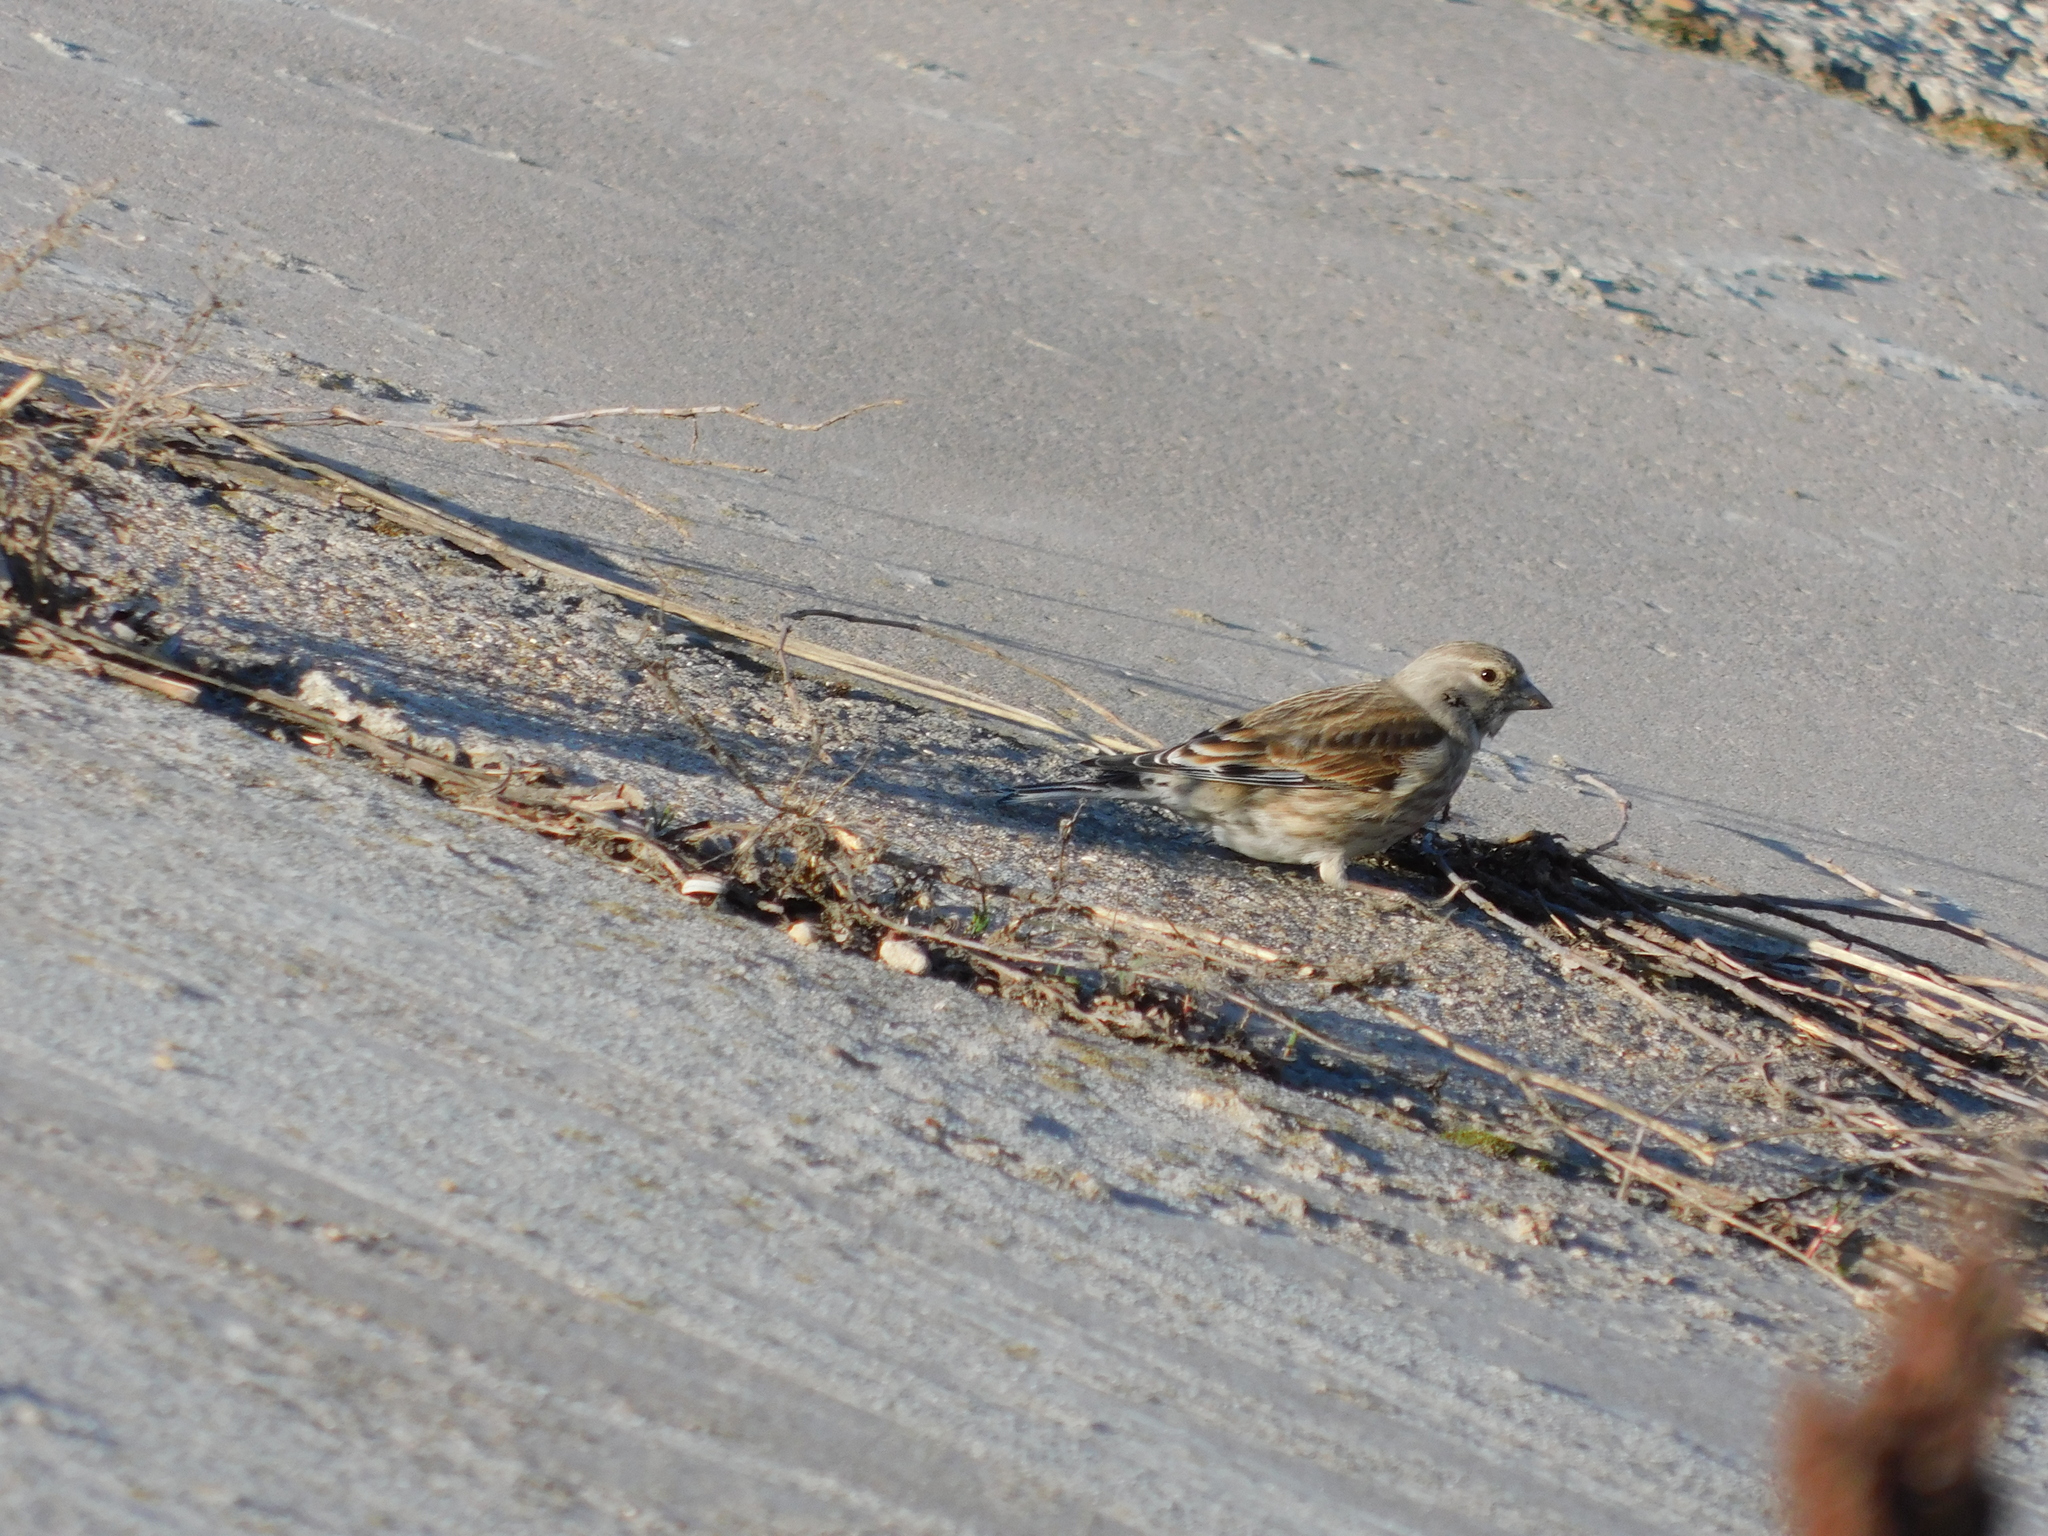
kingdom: Animalia
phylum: Chordata
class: Aves
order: Passeriformes
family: Fringillidae
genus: Linaria
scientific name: Linaria cannabina
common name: Common linnet
